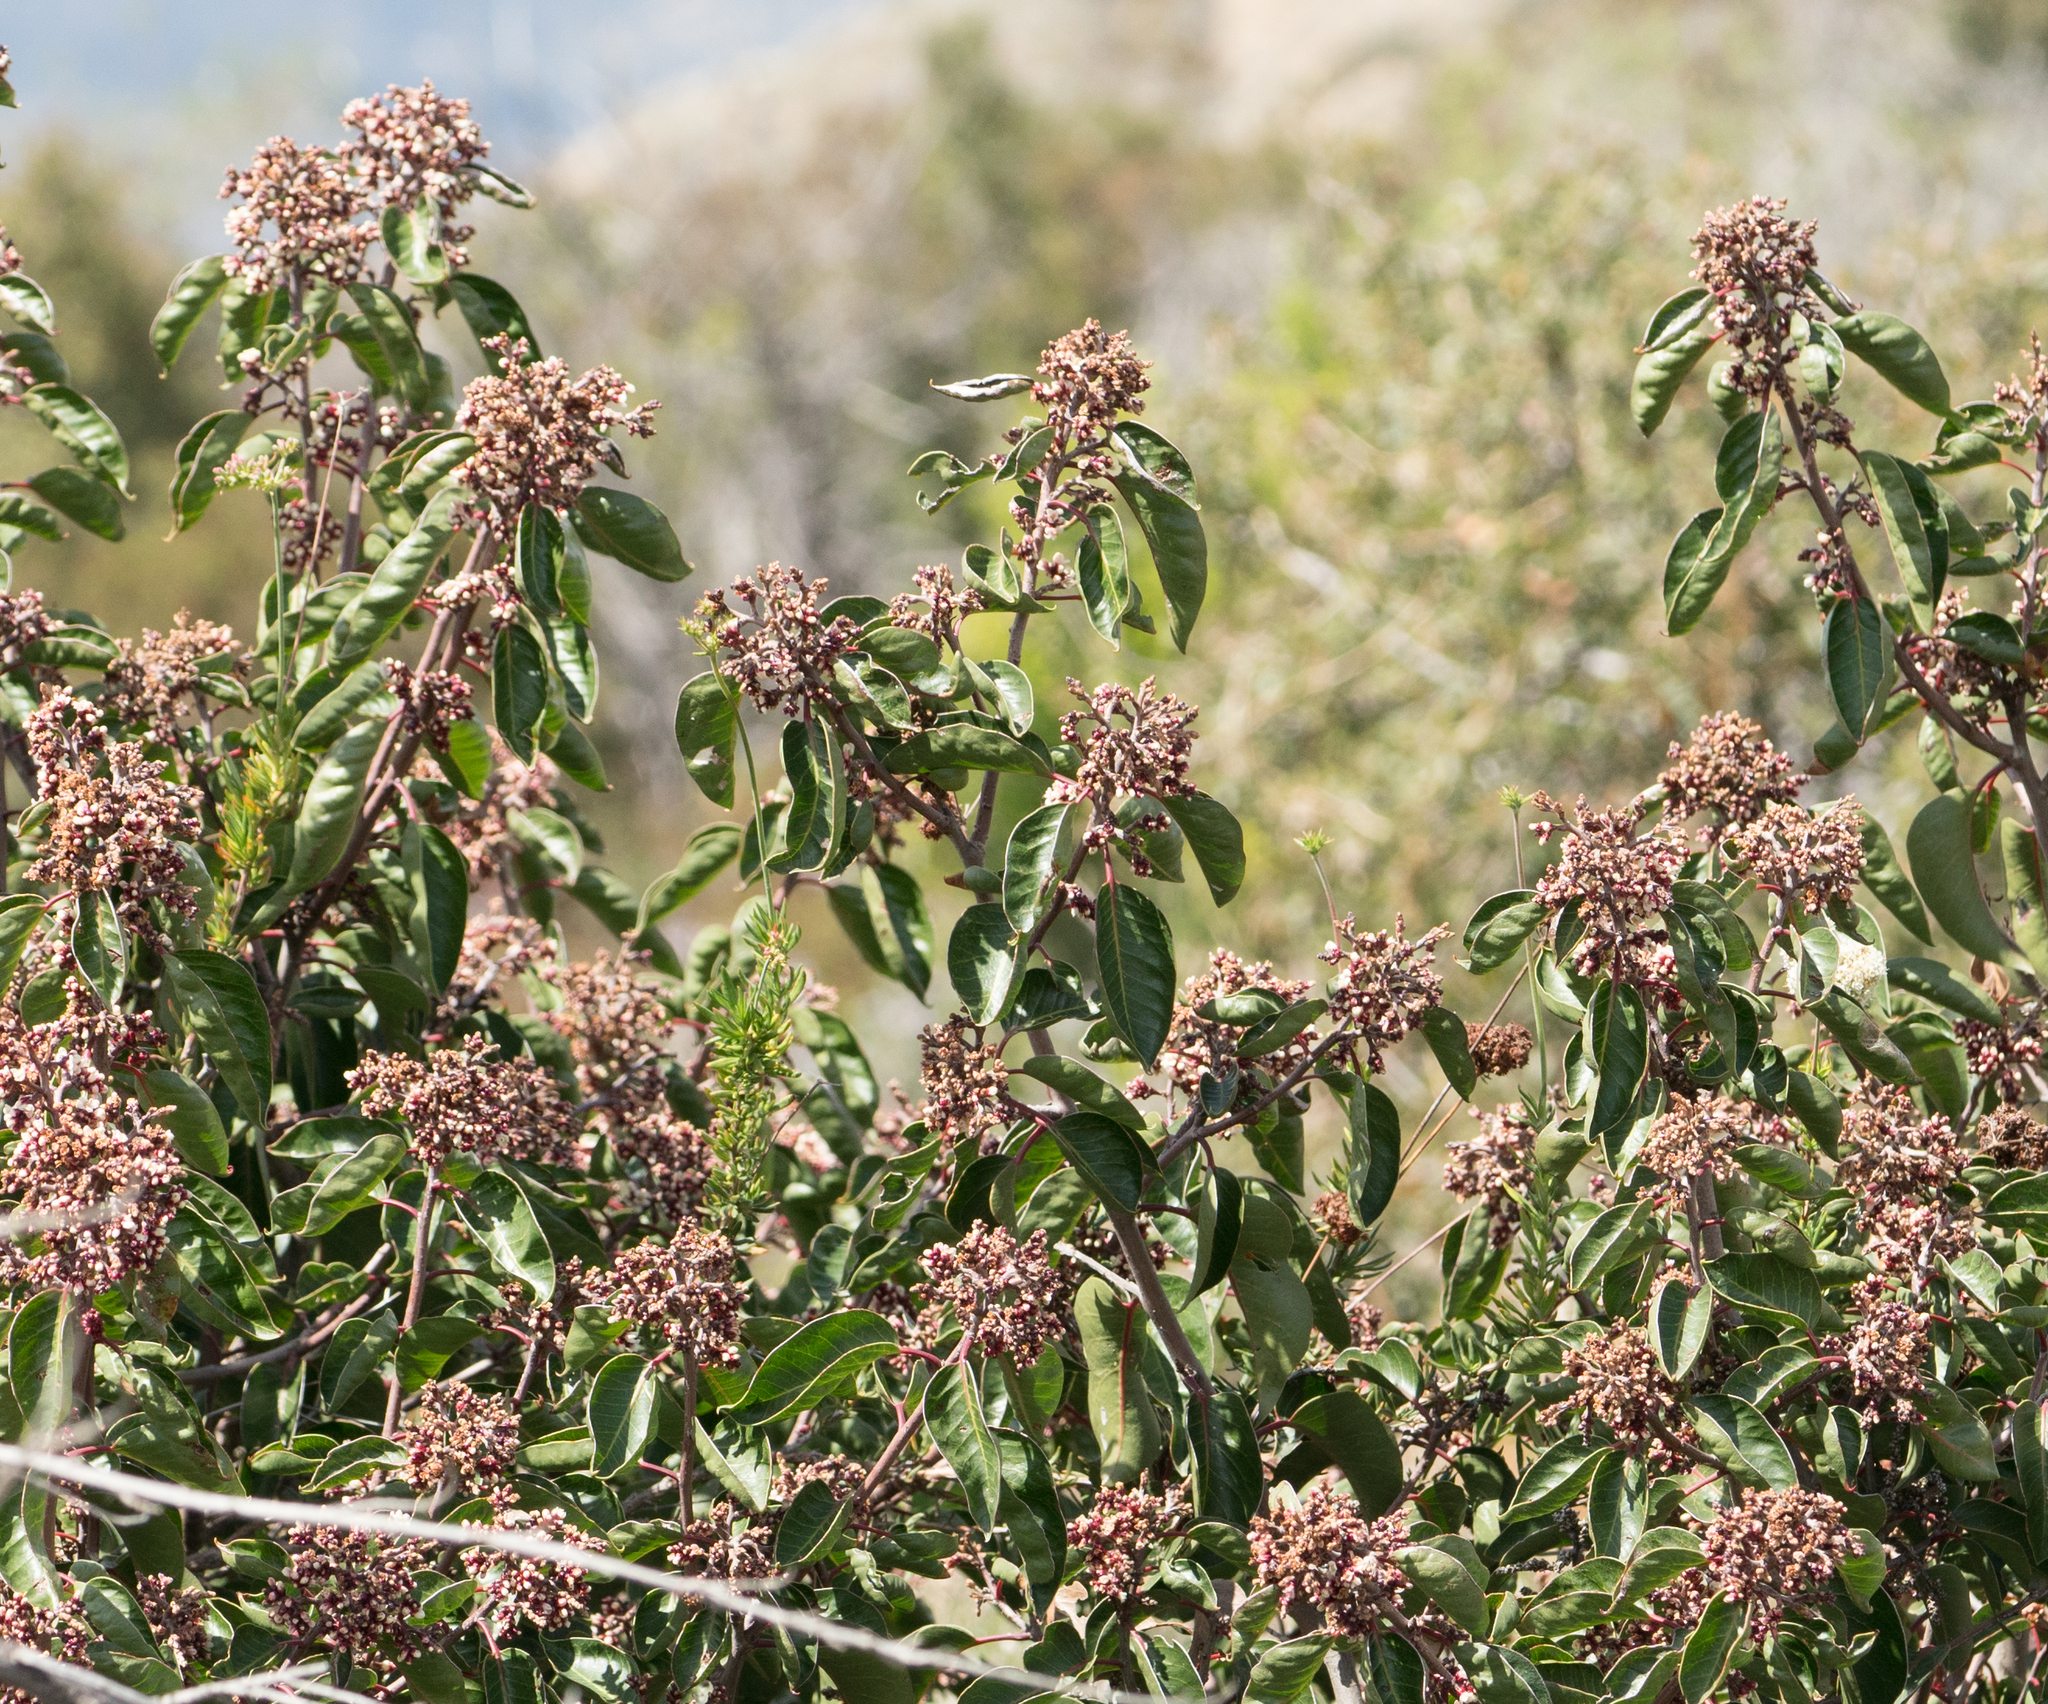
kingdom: Plantae
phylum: Tracheophyta
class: Magnoliopsida
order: Sapindales
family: Anacardiaceae
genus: Rhus
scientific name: Rhus ovata
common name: Sugar sumac
